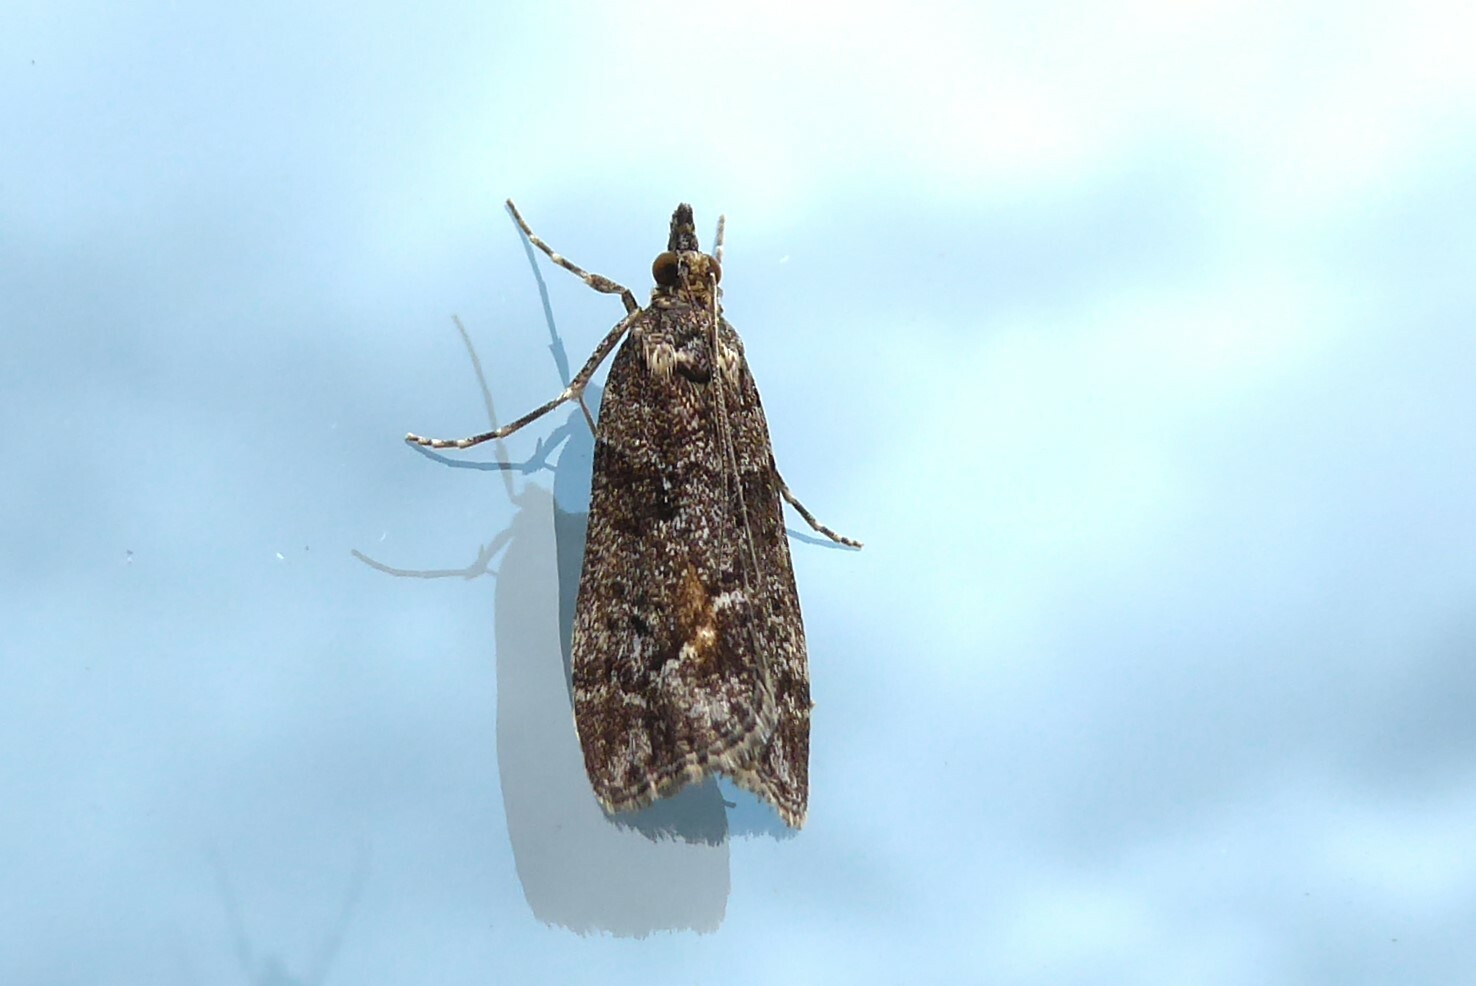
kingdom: Animalia
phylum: Arthropoda
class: Insecta
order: Lepidoptera
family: Crambidae
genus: Eudonia
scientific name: Eudonia submarginalis
